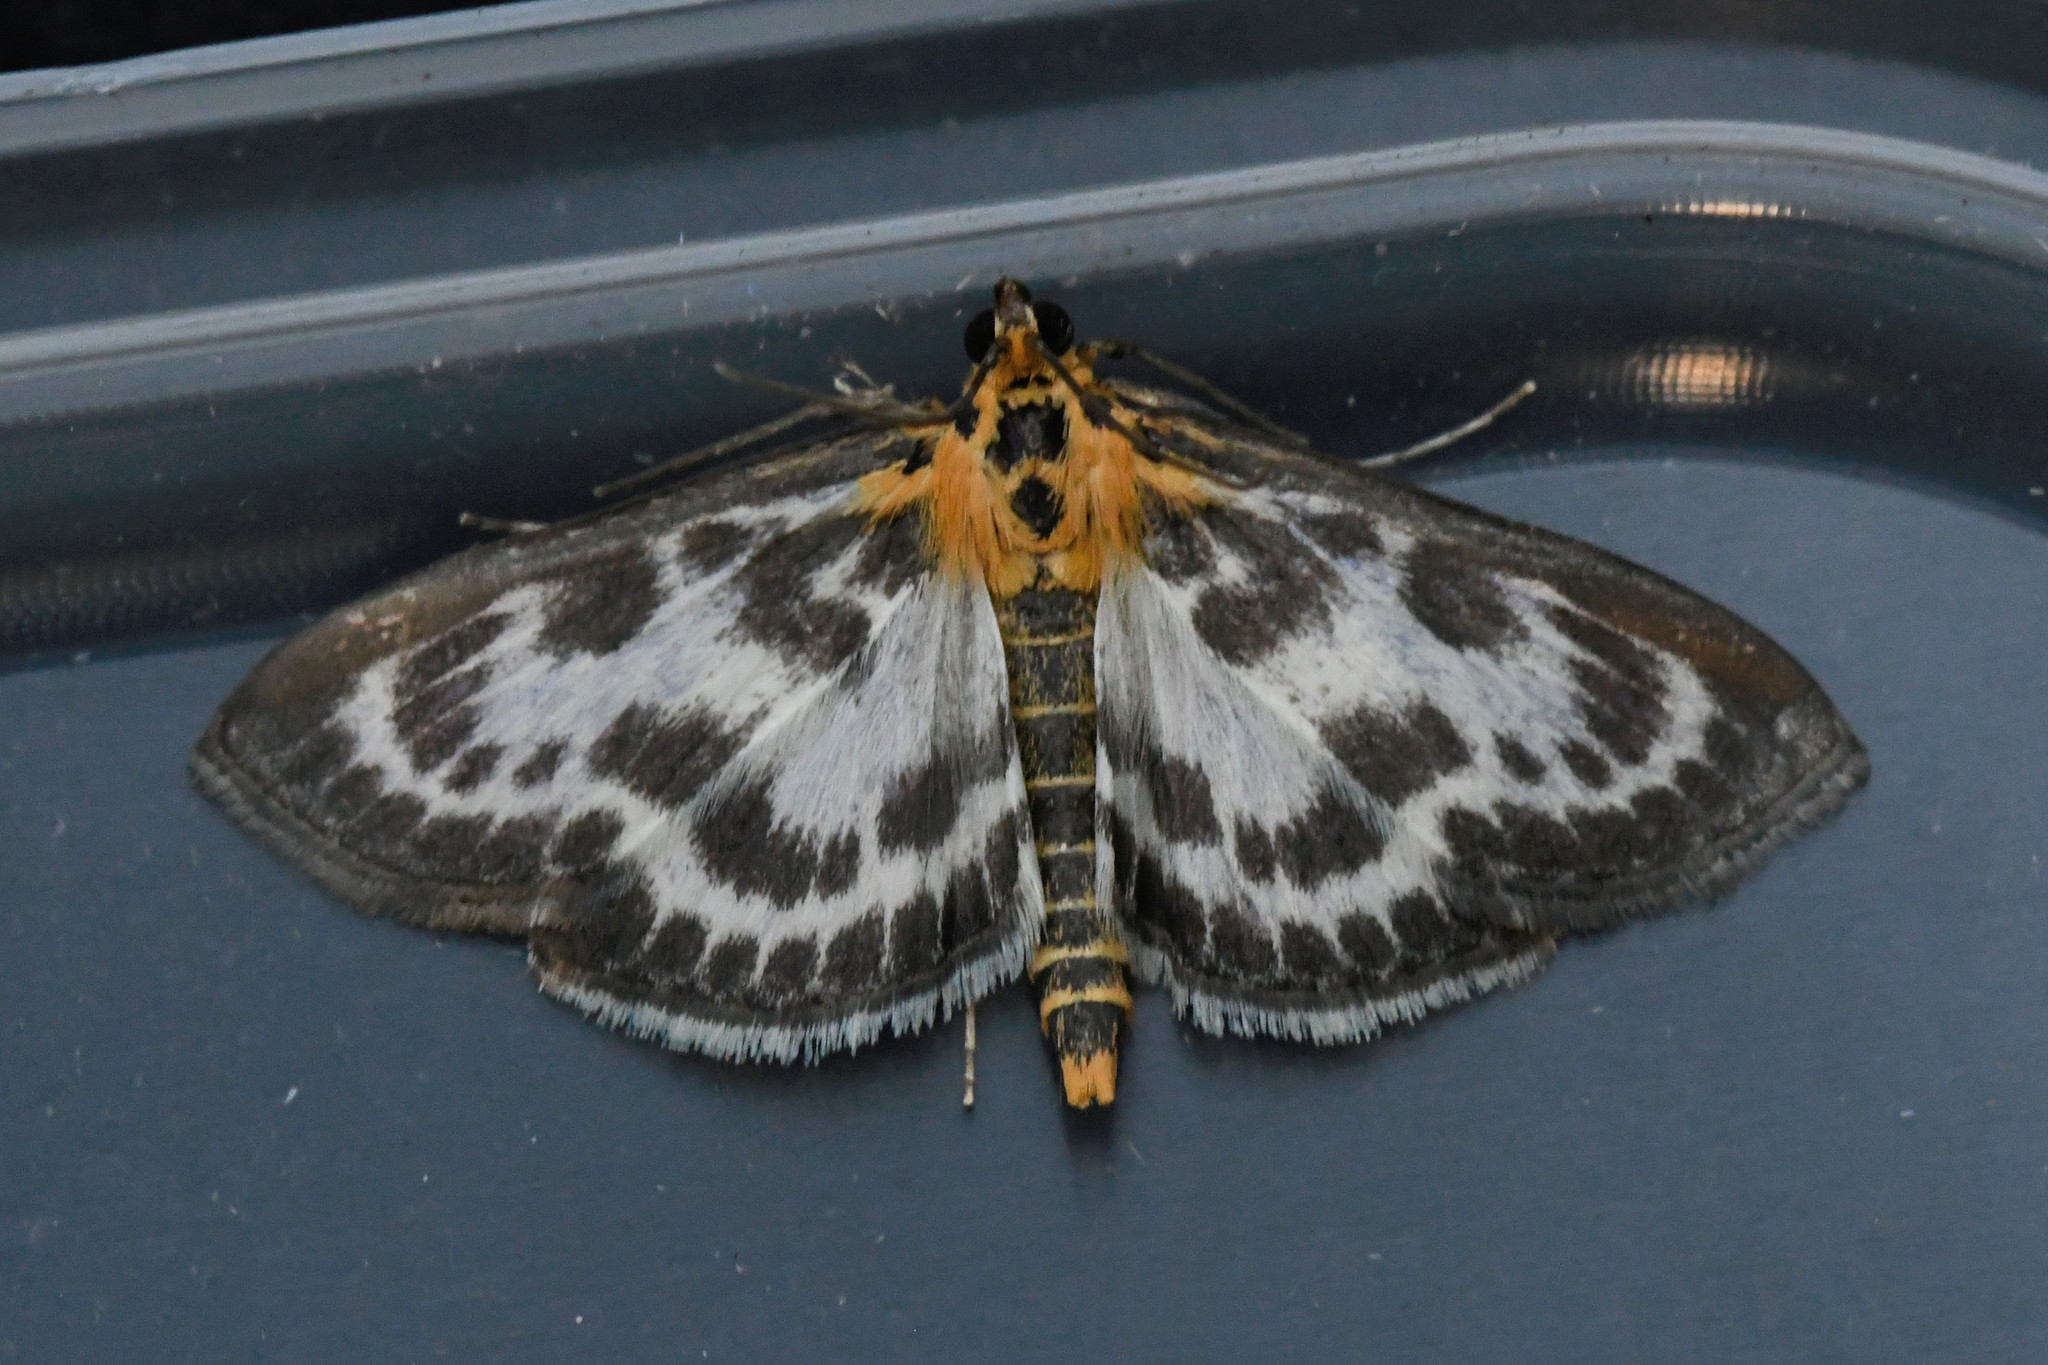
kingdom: Animalia
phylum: Arthropoda
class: Insecta
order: Lepidoptera
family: Crambidae
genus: Anania
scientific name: Anania hortulata
